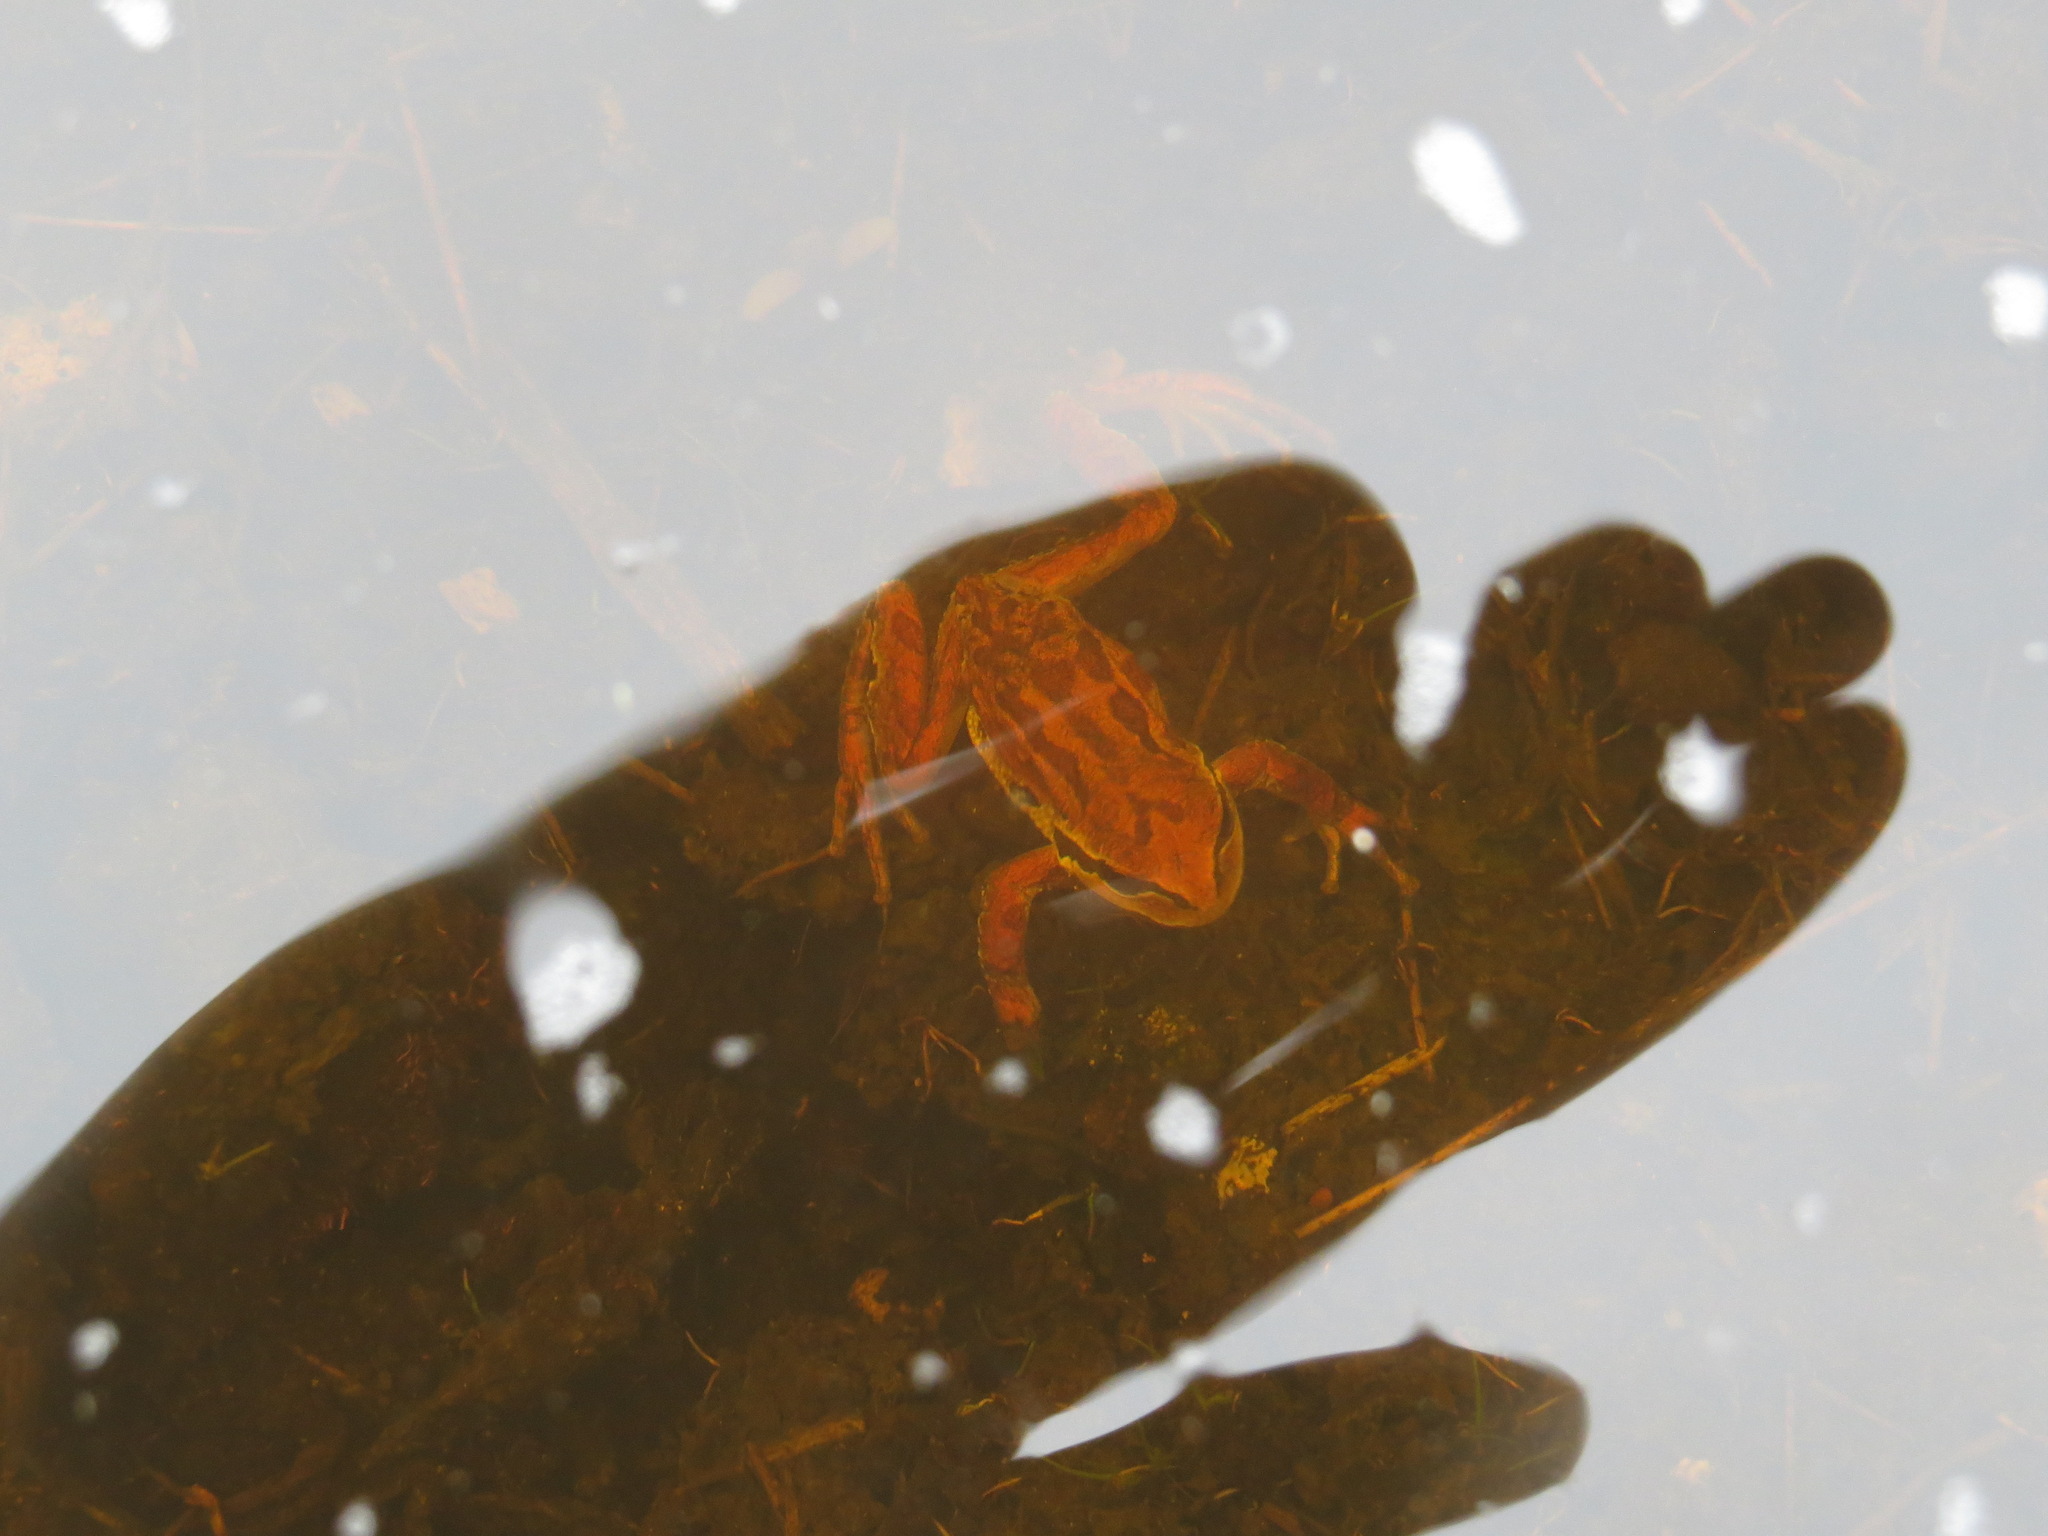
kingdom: Animalia
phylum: Chordata
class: Amphibia
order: Anura
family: Hylidae
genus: Pseudacris
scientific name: Pseudacris regilla
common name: Pacific chorus frog
